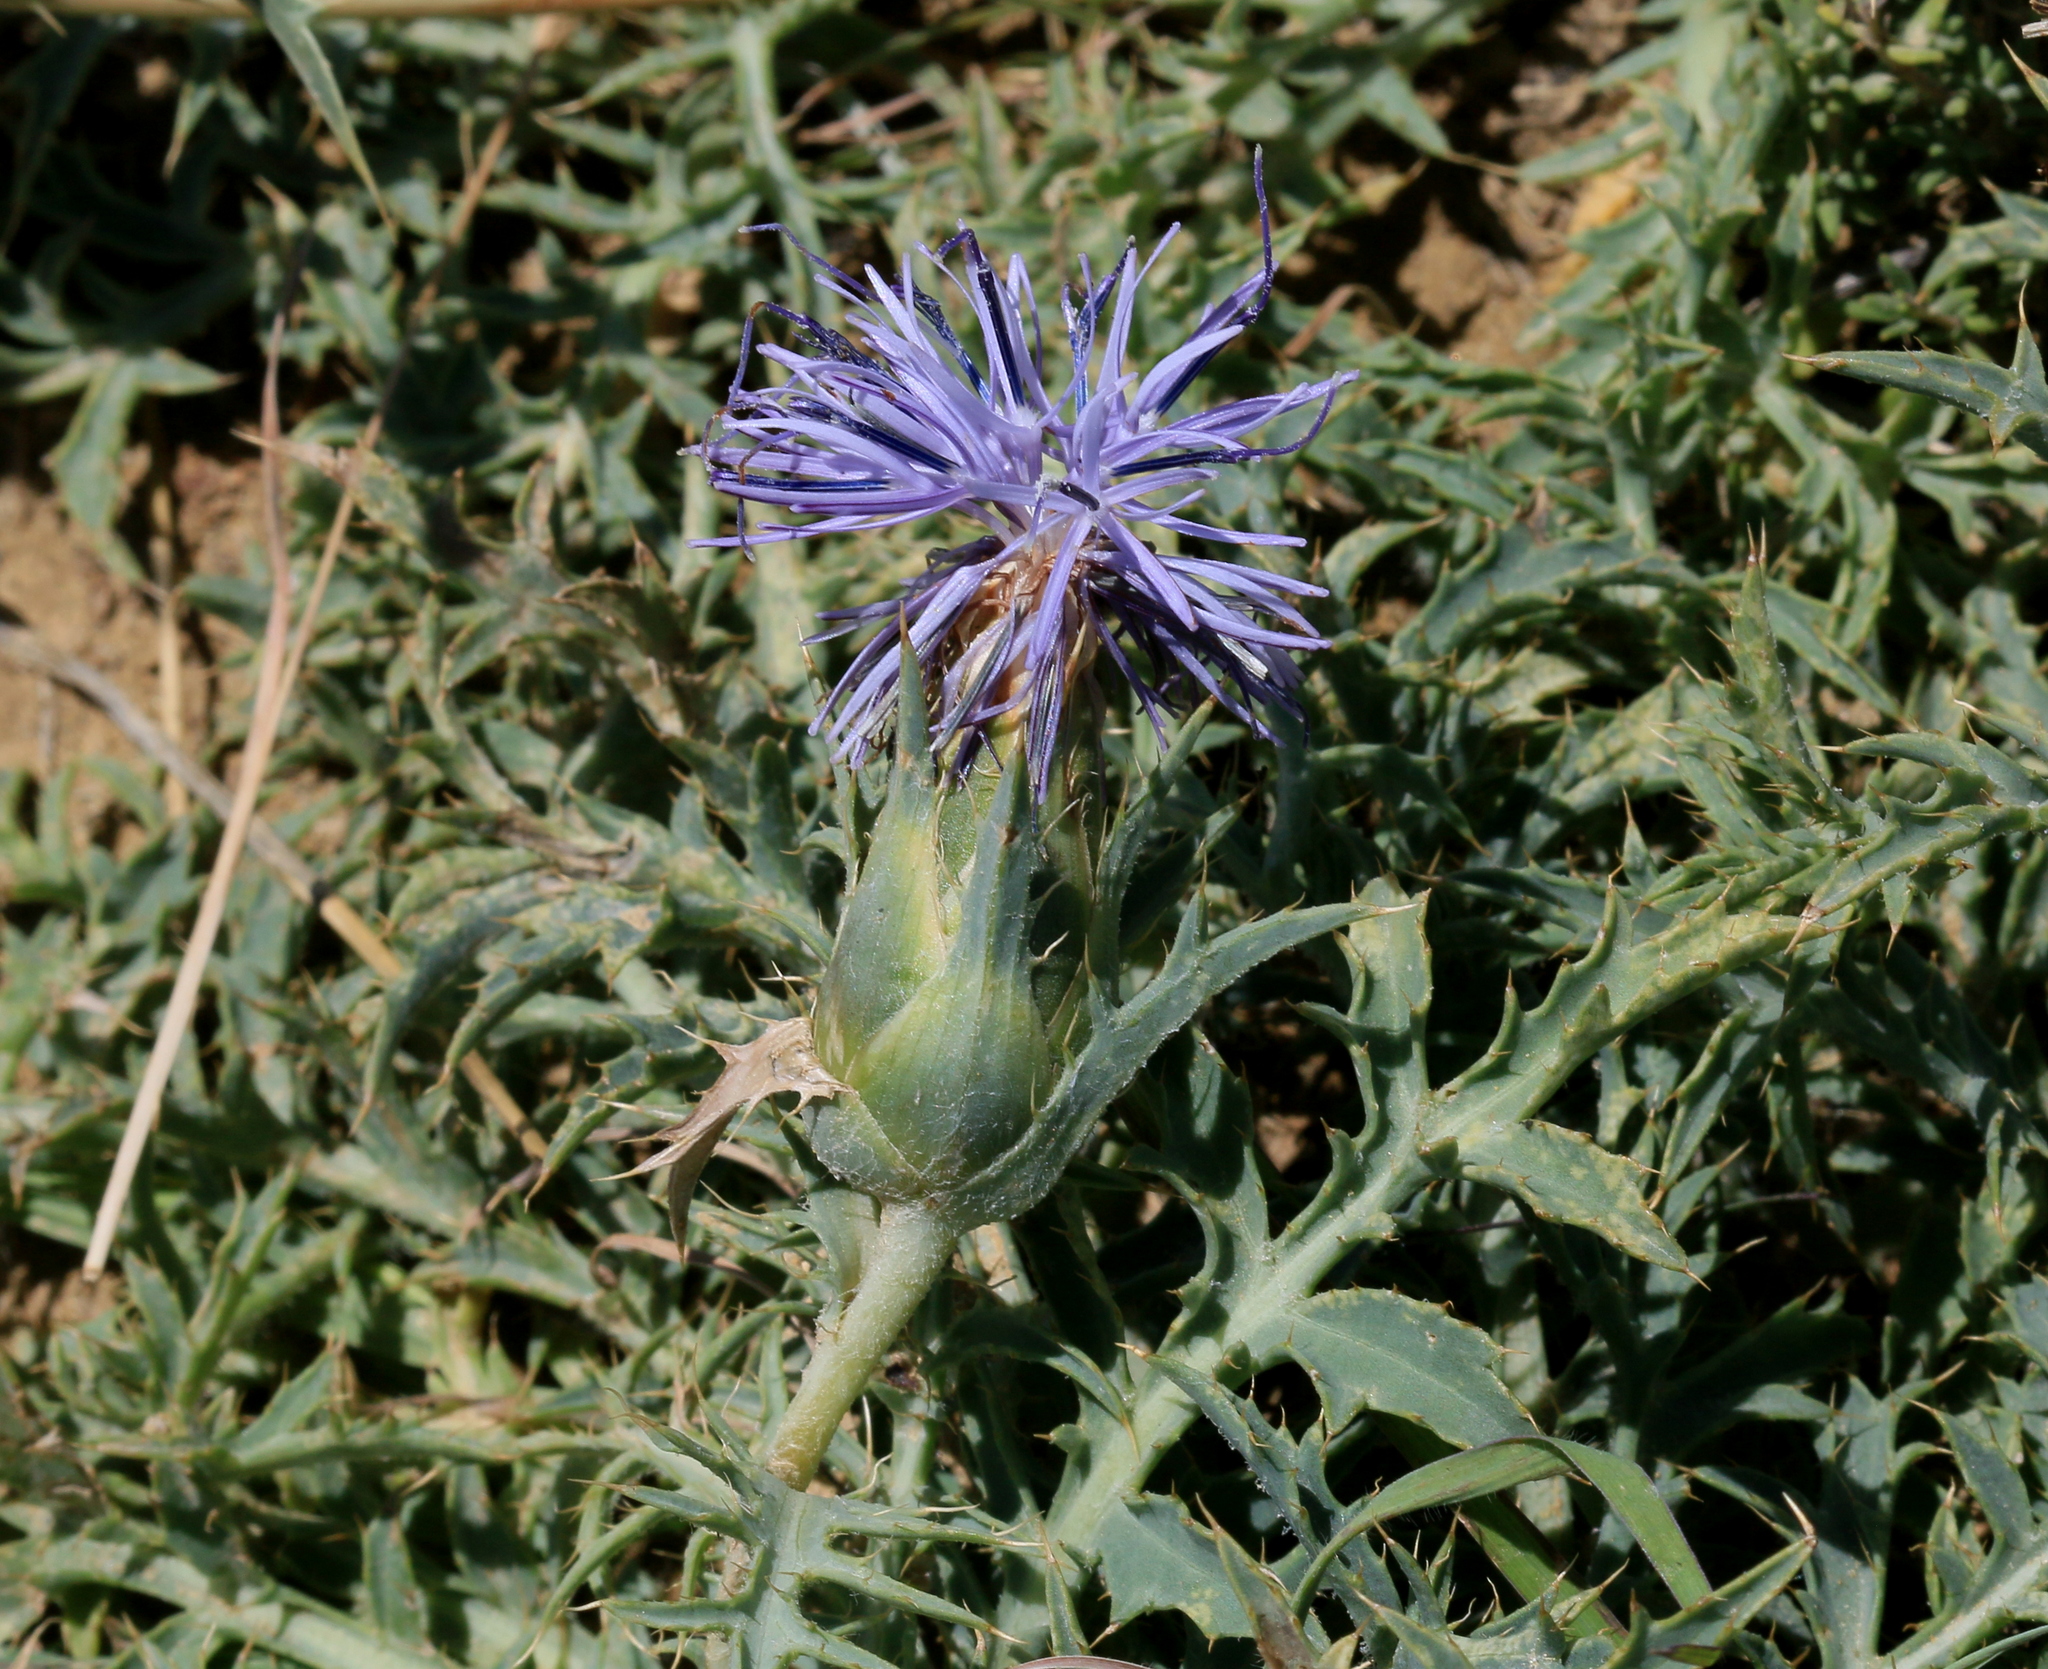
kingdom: Plantae
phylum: Tracheophyta
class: Magnoliopsida
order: Asterales
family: Asteraceae
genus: Carduncellus
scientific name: Carduncellus monspelliensium
